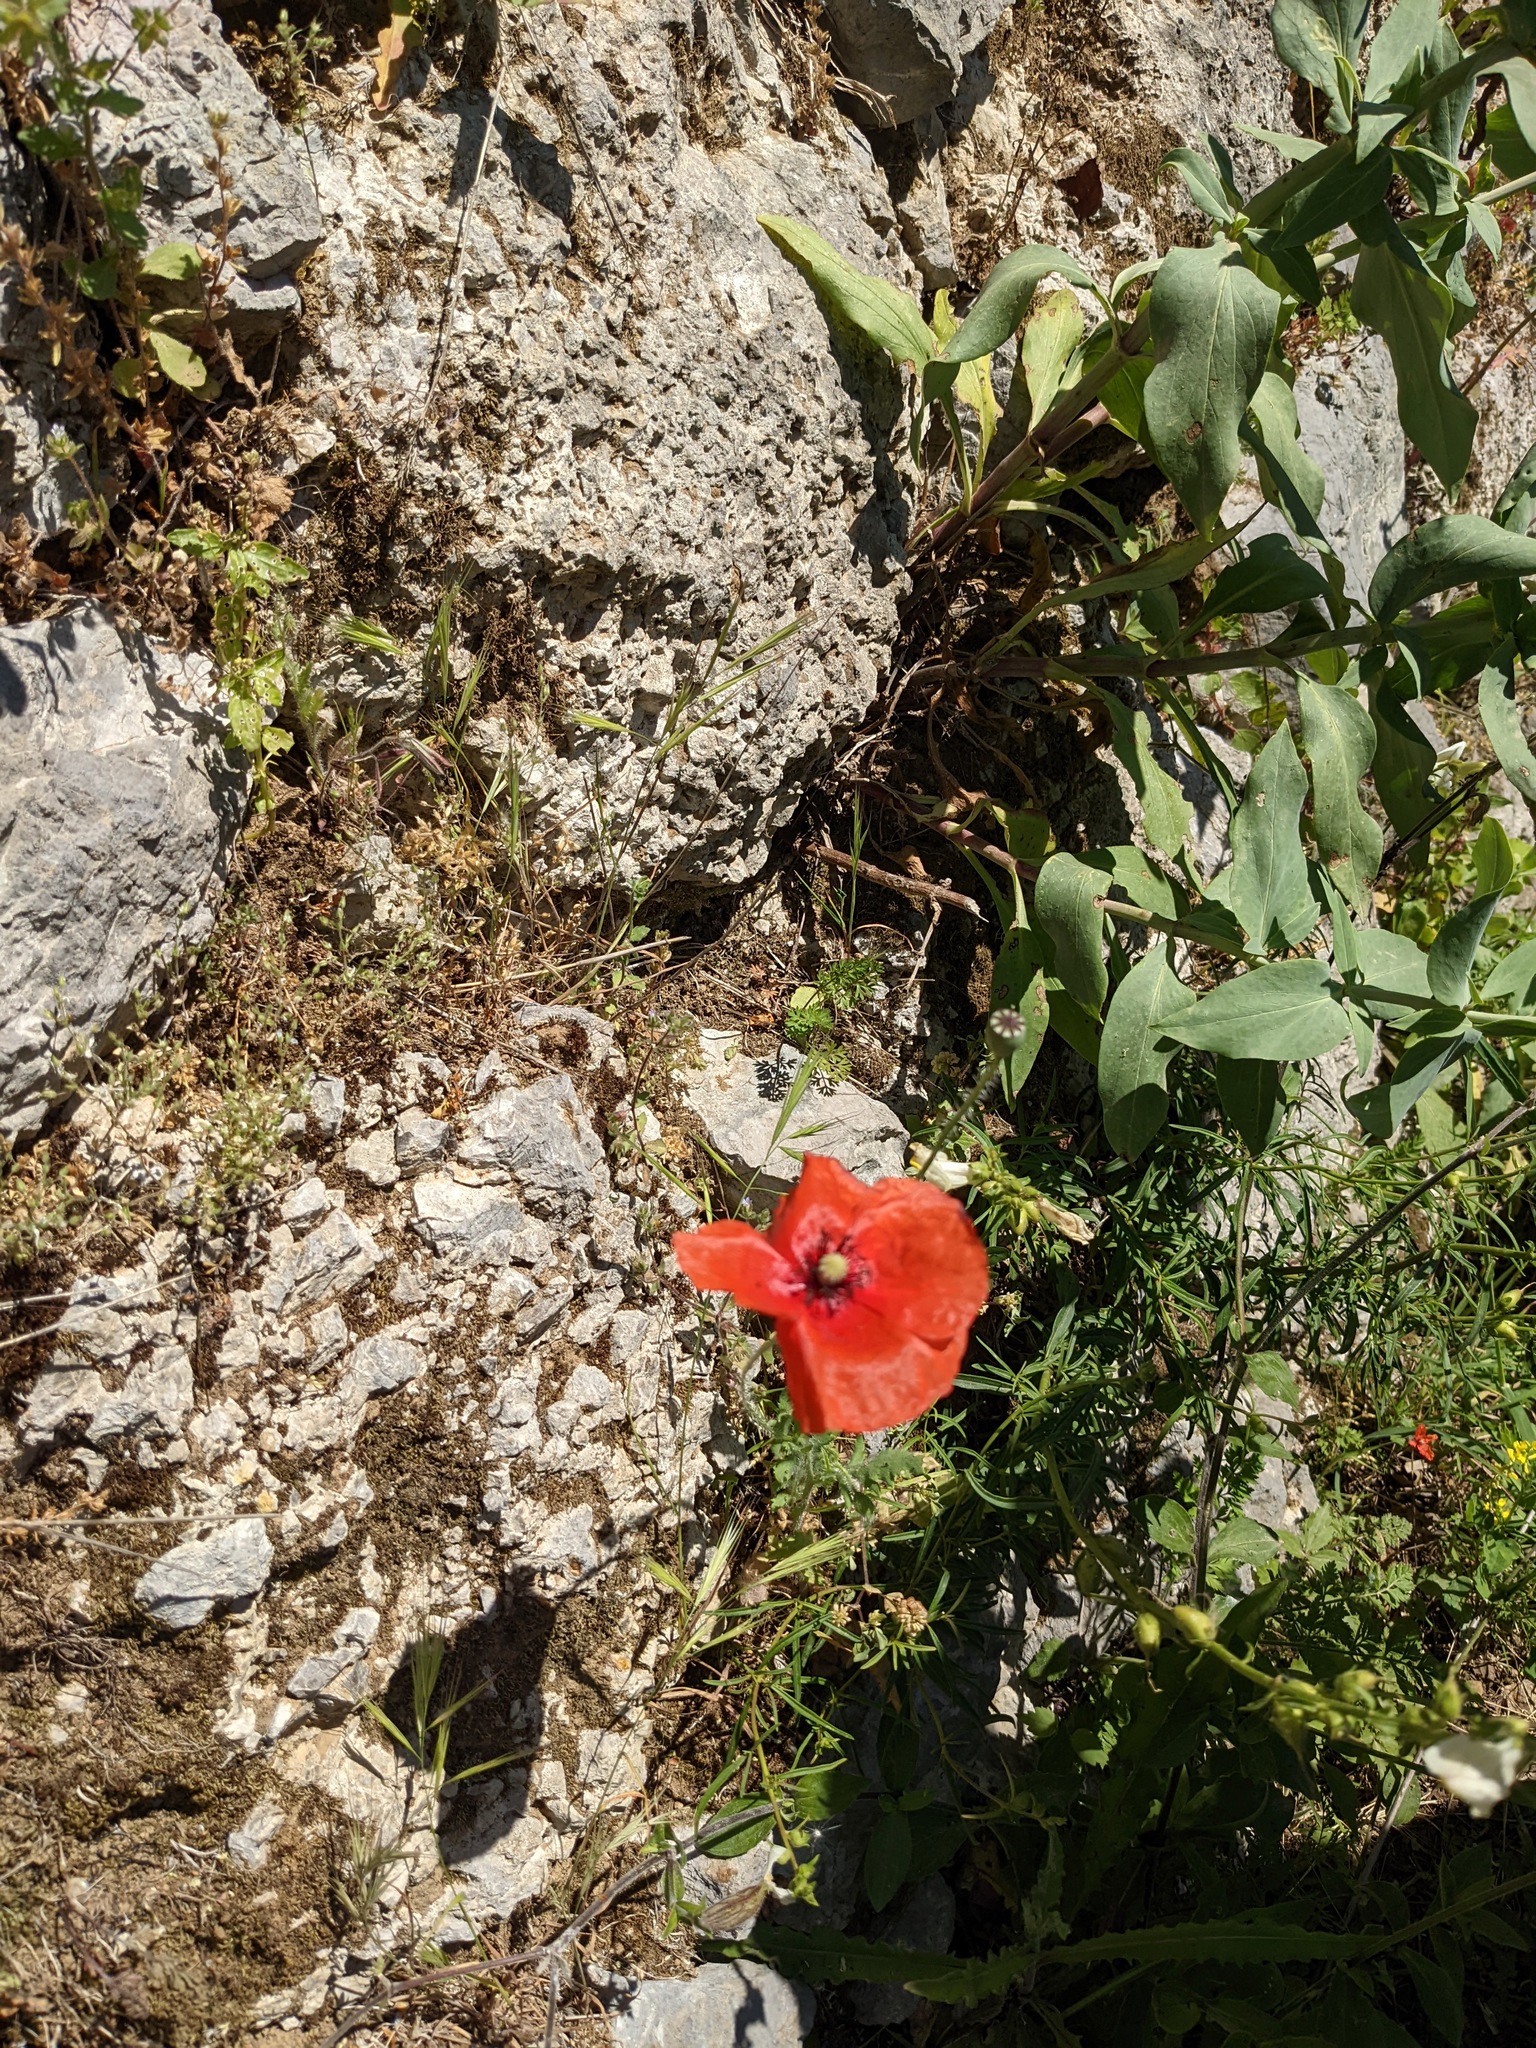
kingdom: Plantae
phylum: Tracheophyta
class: Magnoliopsida
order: Ranunculales
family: Papaveraceae
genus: Papaver
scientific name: Papaver rhoeas
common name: Corn poppy
